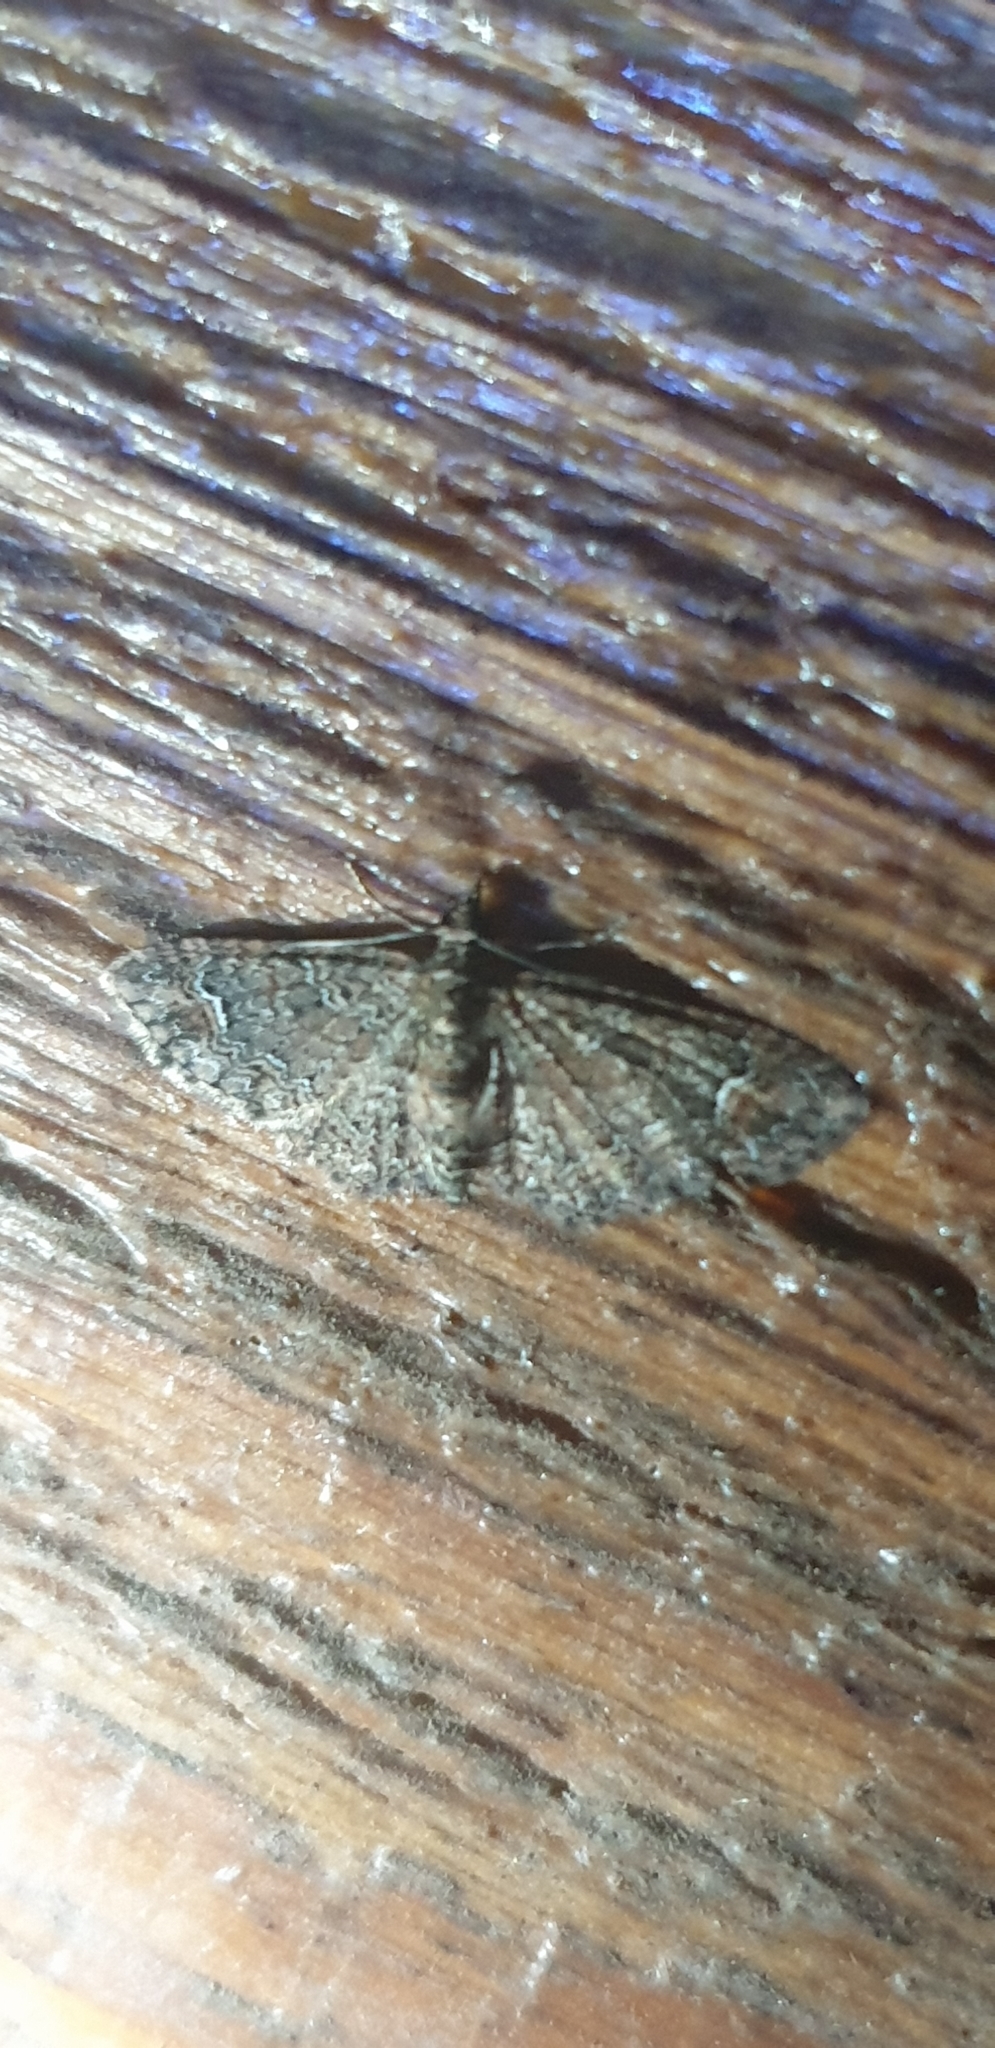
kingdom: Animalia
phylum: Arthropoda
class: Insecta
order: Lepidoptera
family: Geometridae
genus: Pasiphilodes
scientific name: Pasiphilodes testulata
